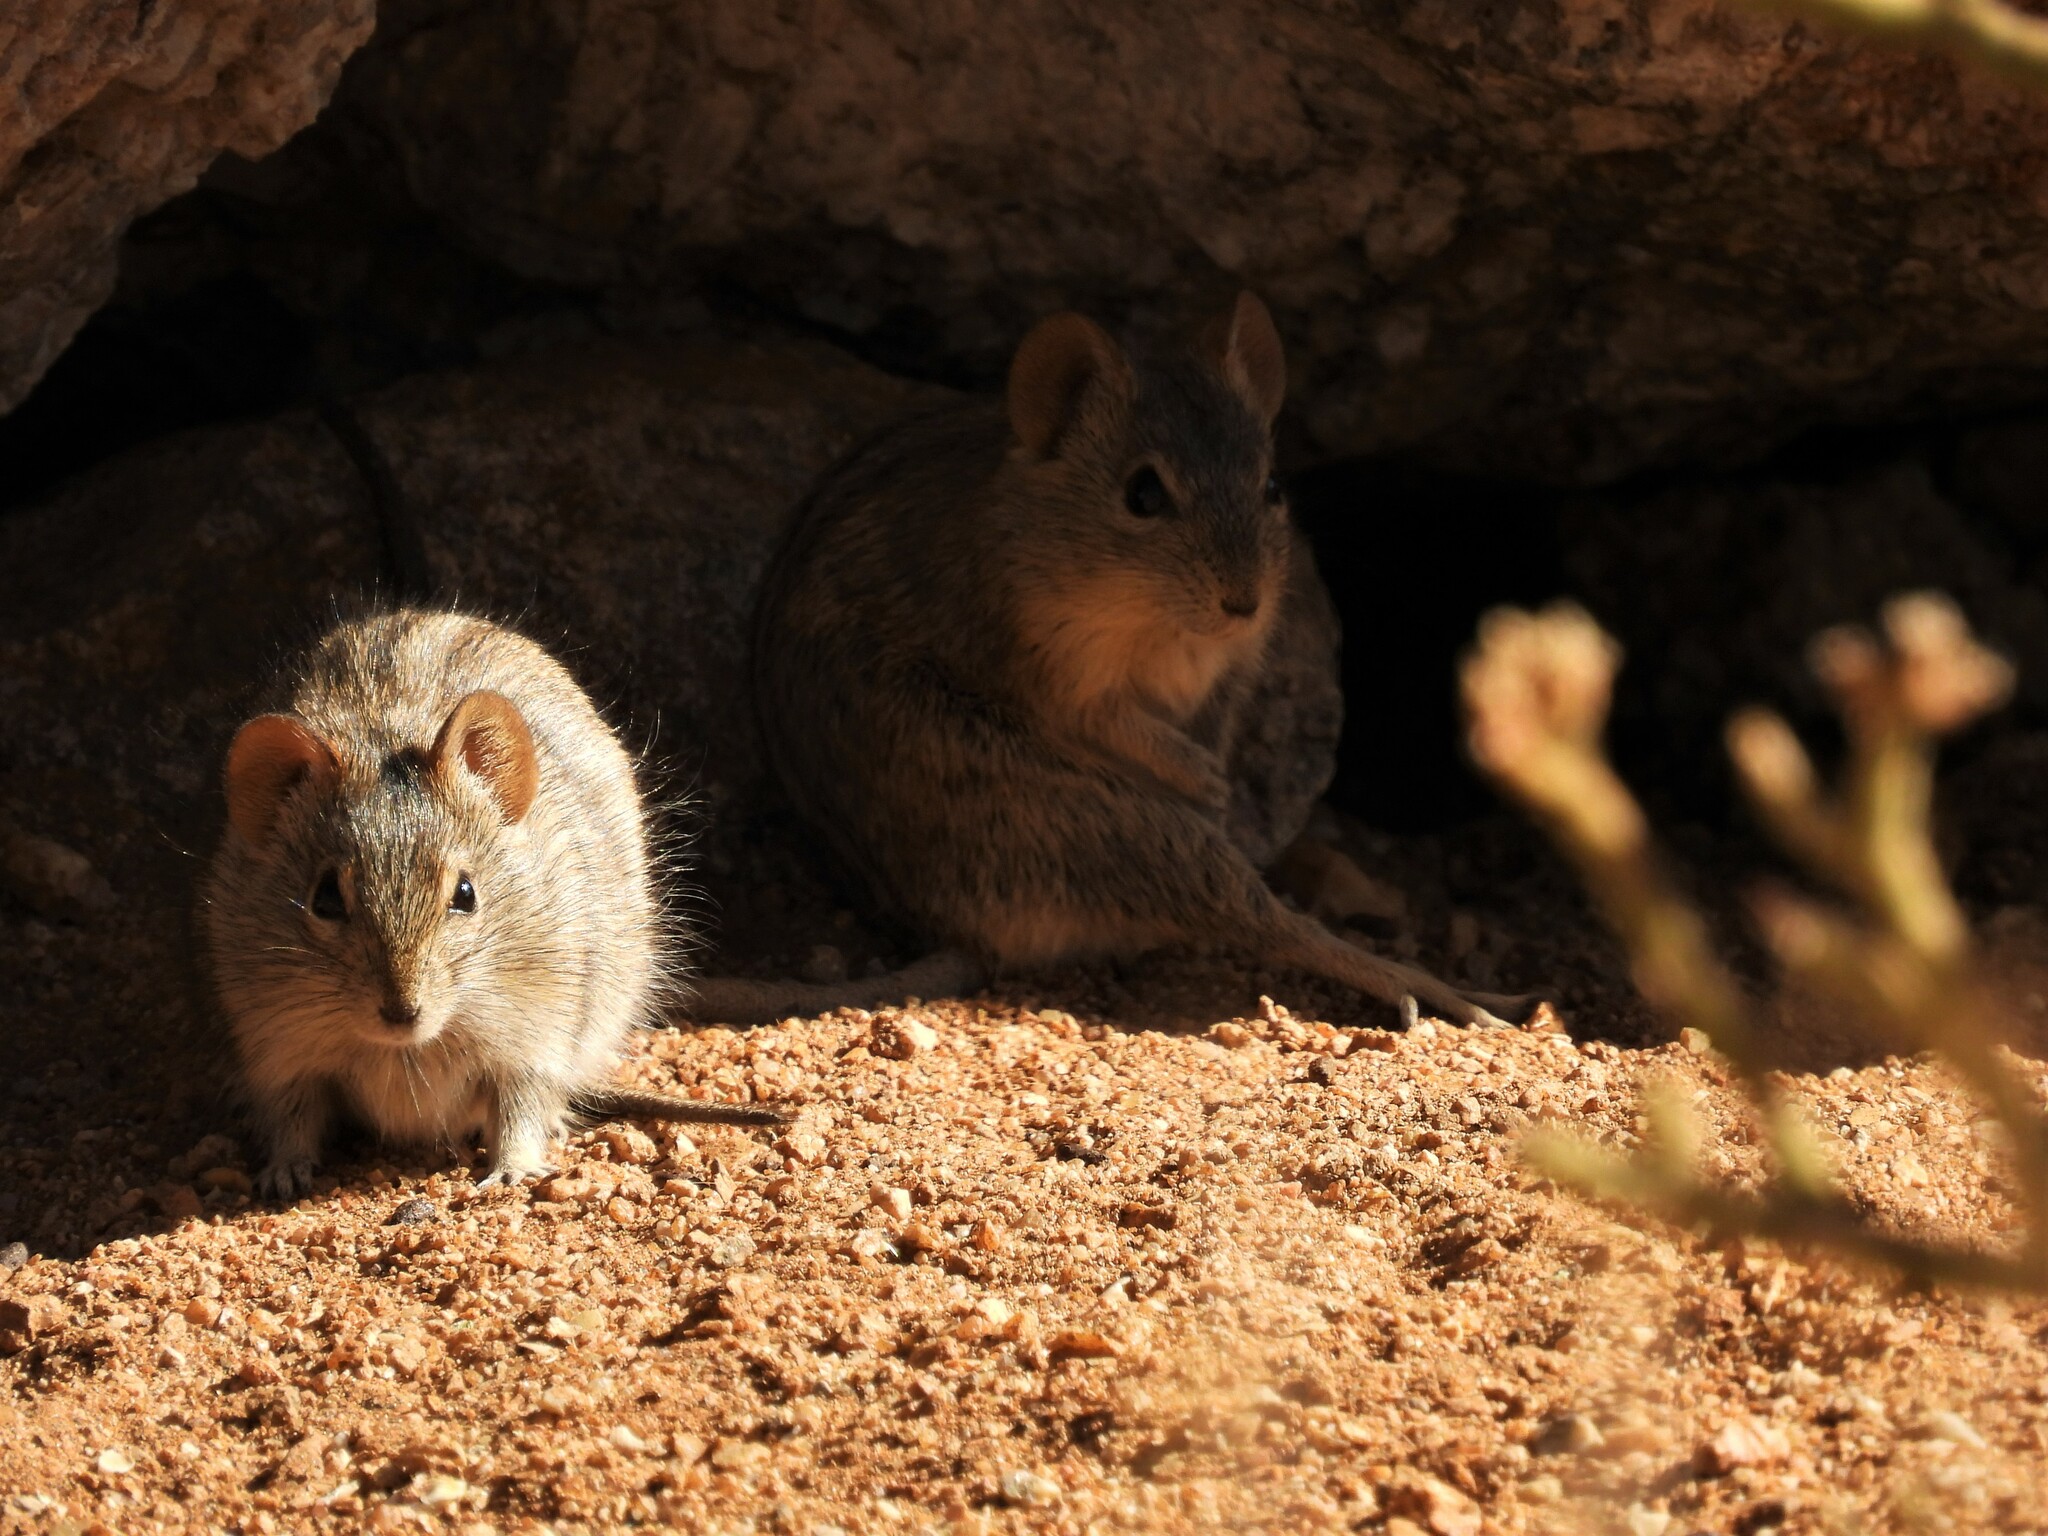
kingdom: Animalia
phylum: Chordata
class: Mammalia
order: Rodentia
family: Muridae
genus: Rhabdomys
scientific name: Rhabdomys pumilio
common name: Xeric four-striped grass rat
